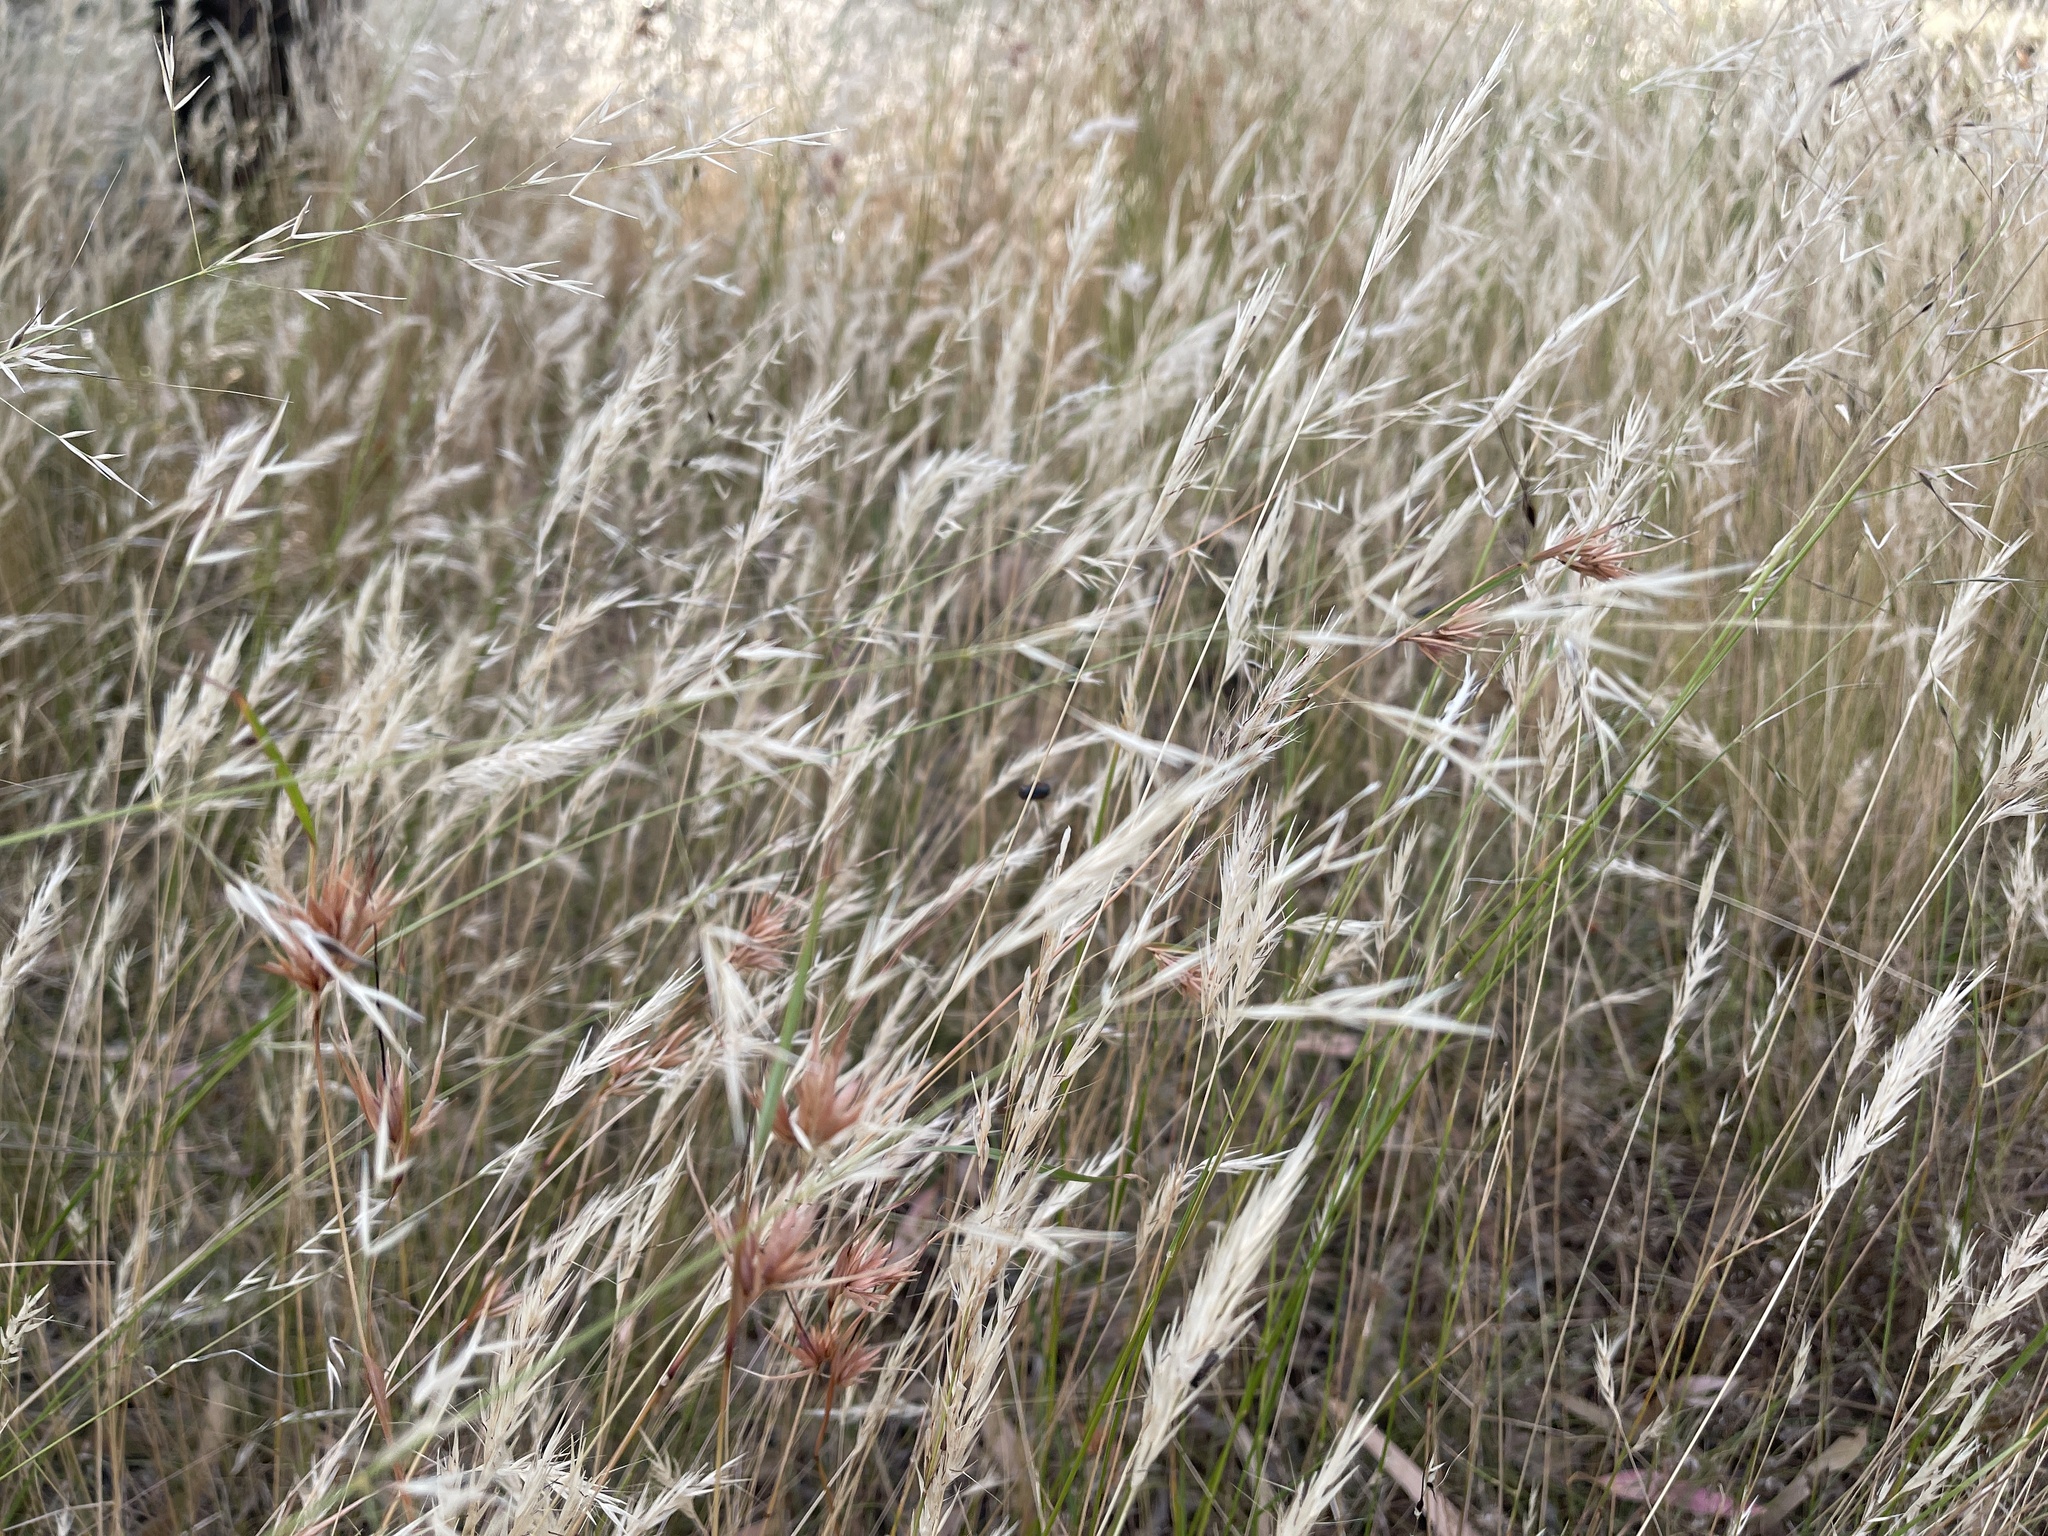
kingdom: Plantae
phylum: Tracheophyta
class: Liliopsida
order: Poales
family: Poaceae
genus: Rytidosperma
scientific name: Rytidosperma setaceum
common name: Small-flower wallaby grass
